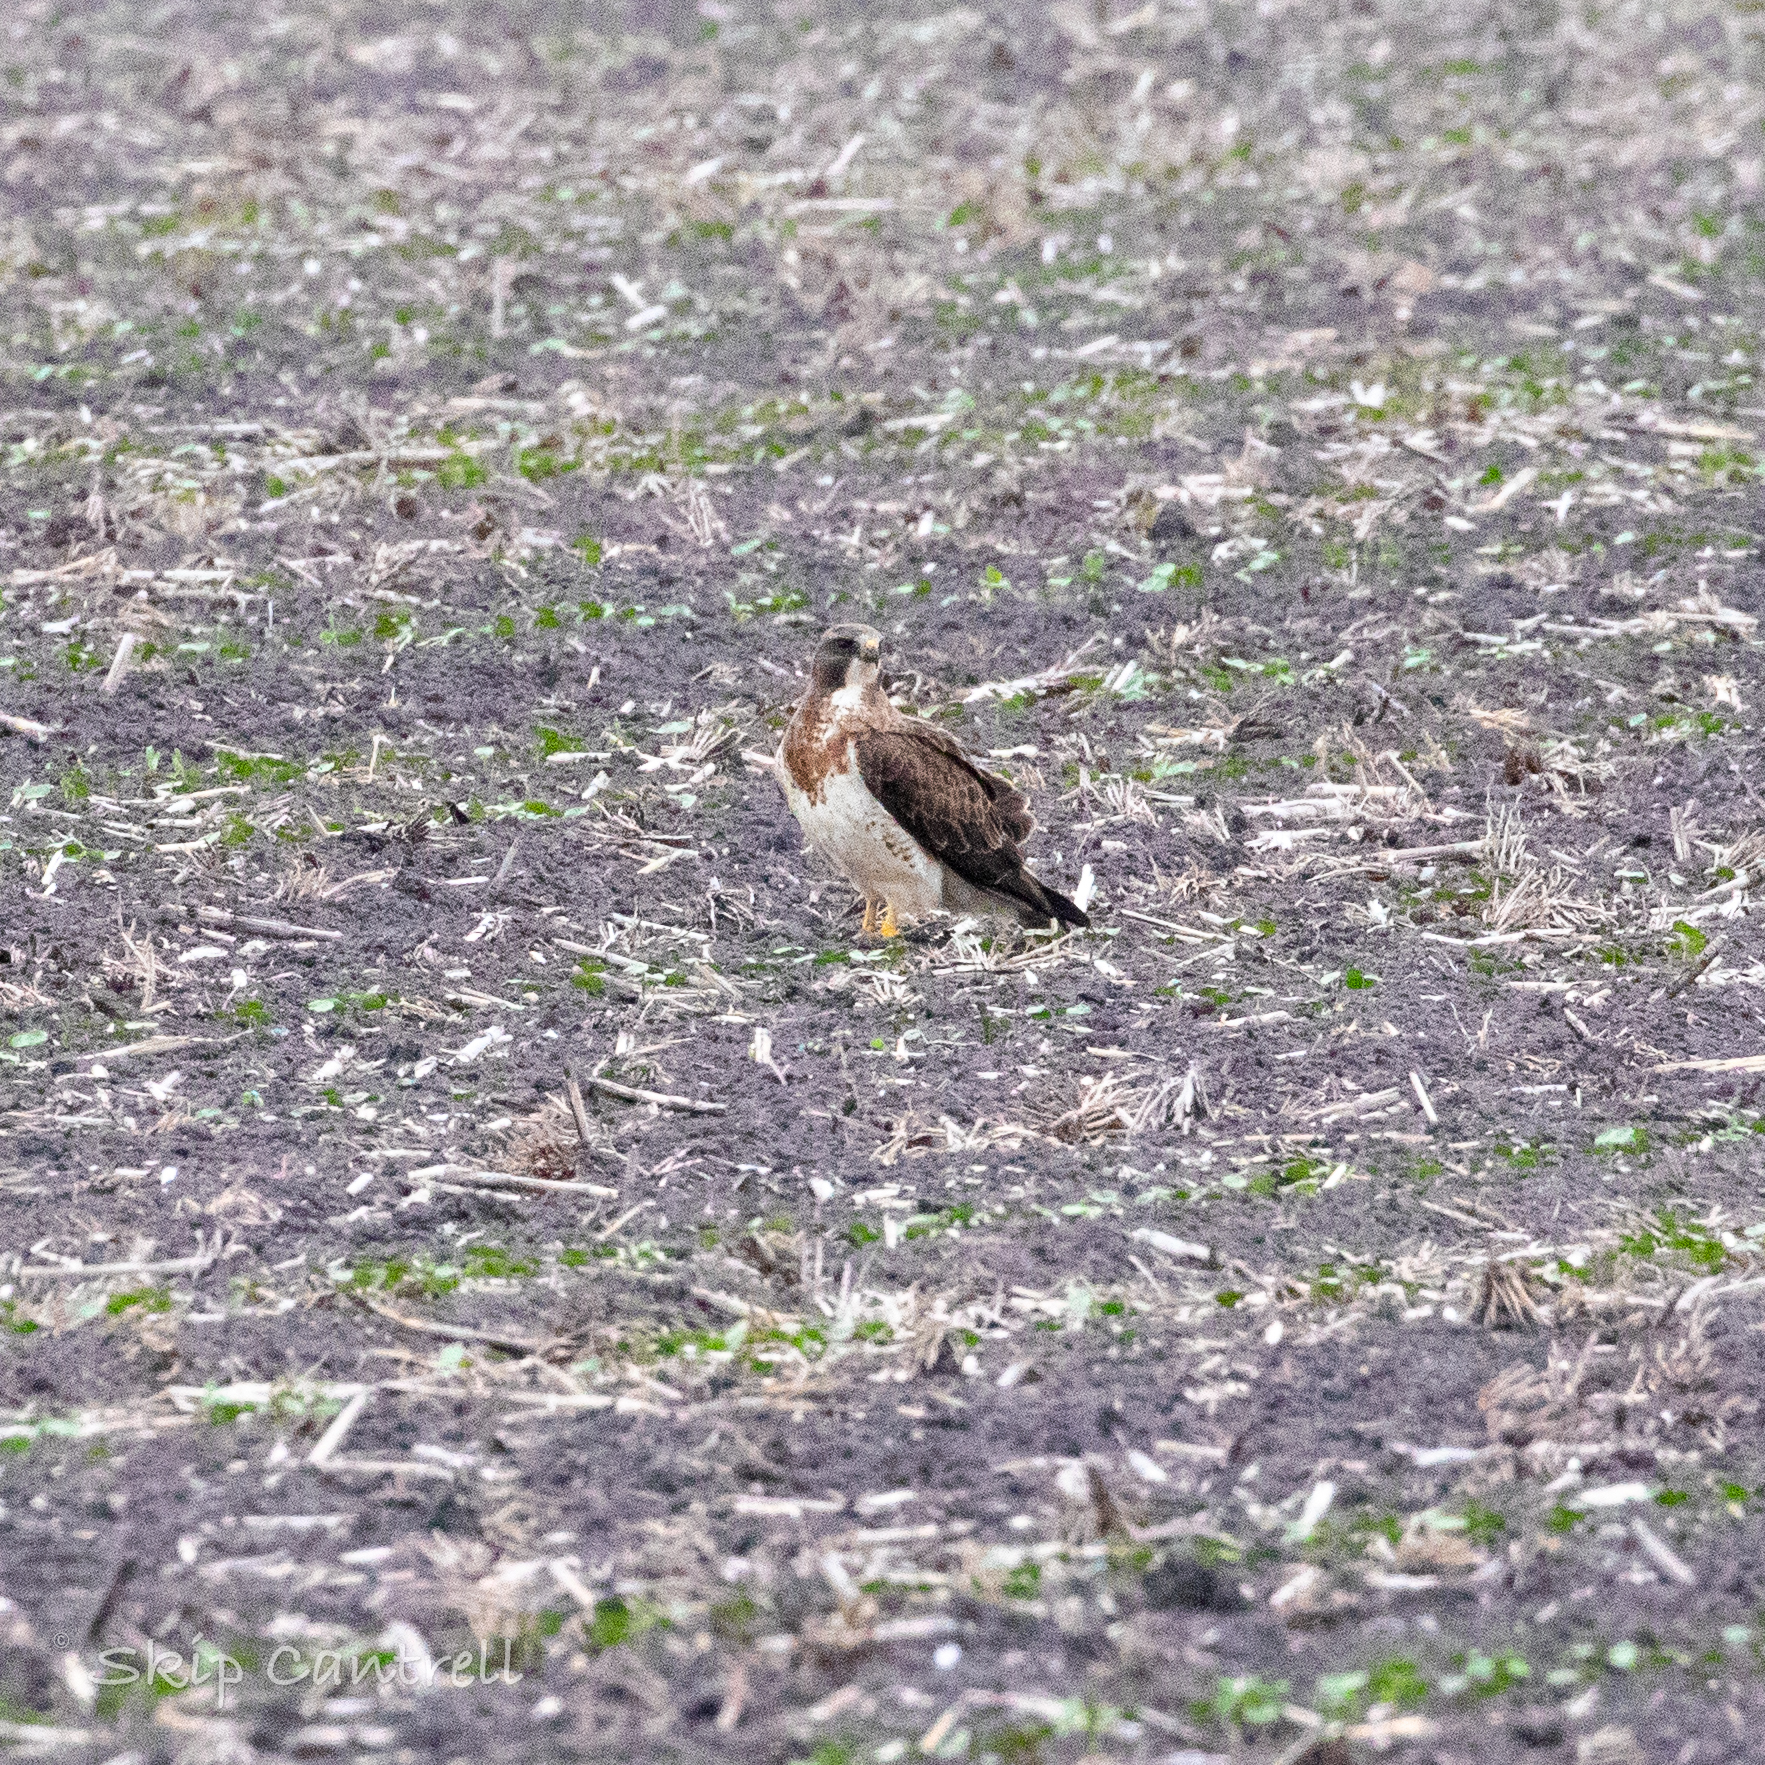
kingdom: Animalia
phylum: Chordata
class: Aves
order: Accipitriformes
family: Accipitridae
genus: Buteo
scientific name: Buteo swainsoni
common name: Swainson's hawk
